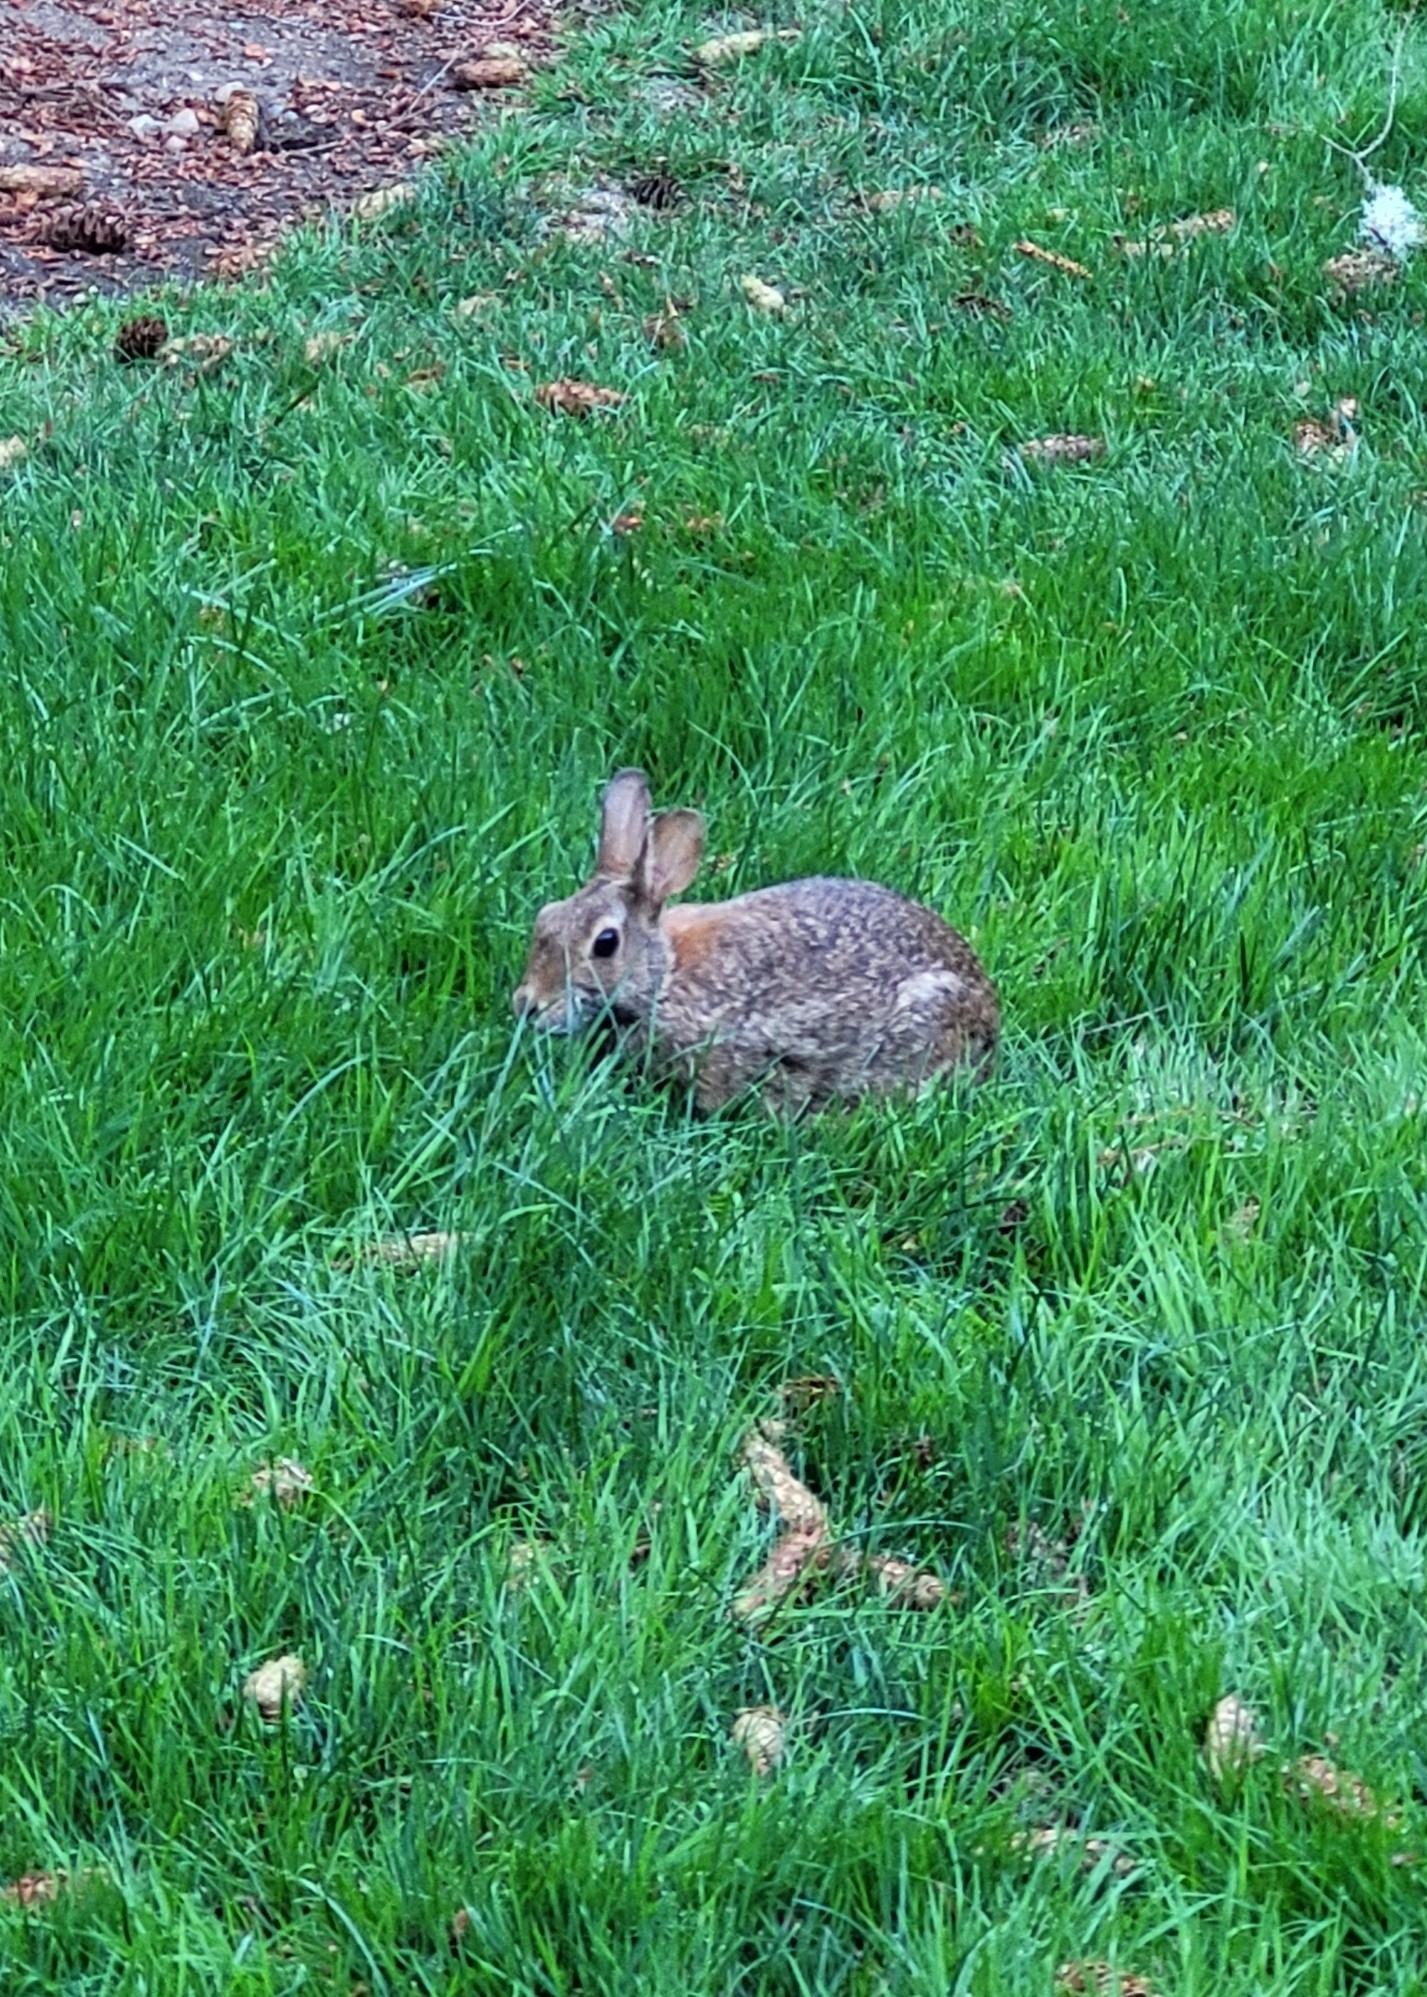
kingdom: Animalia
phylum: Chordata
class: Mammalia
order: Lagomorpha
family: Leporidae
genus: Sylvilagus
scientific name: Sylvilagus floridanus
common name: Eastern cottontail
